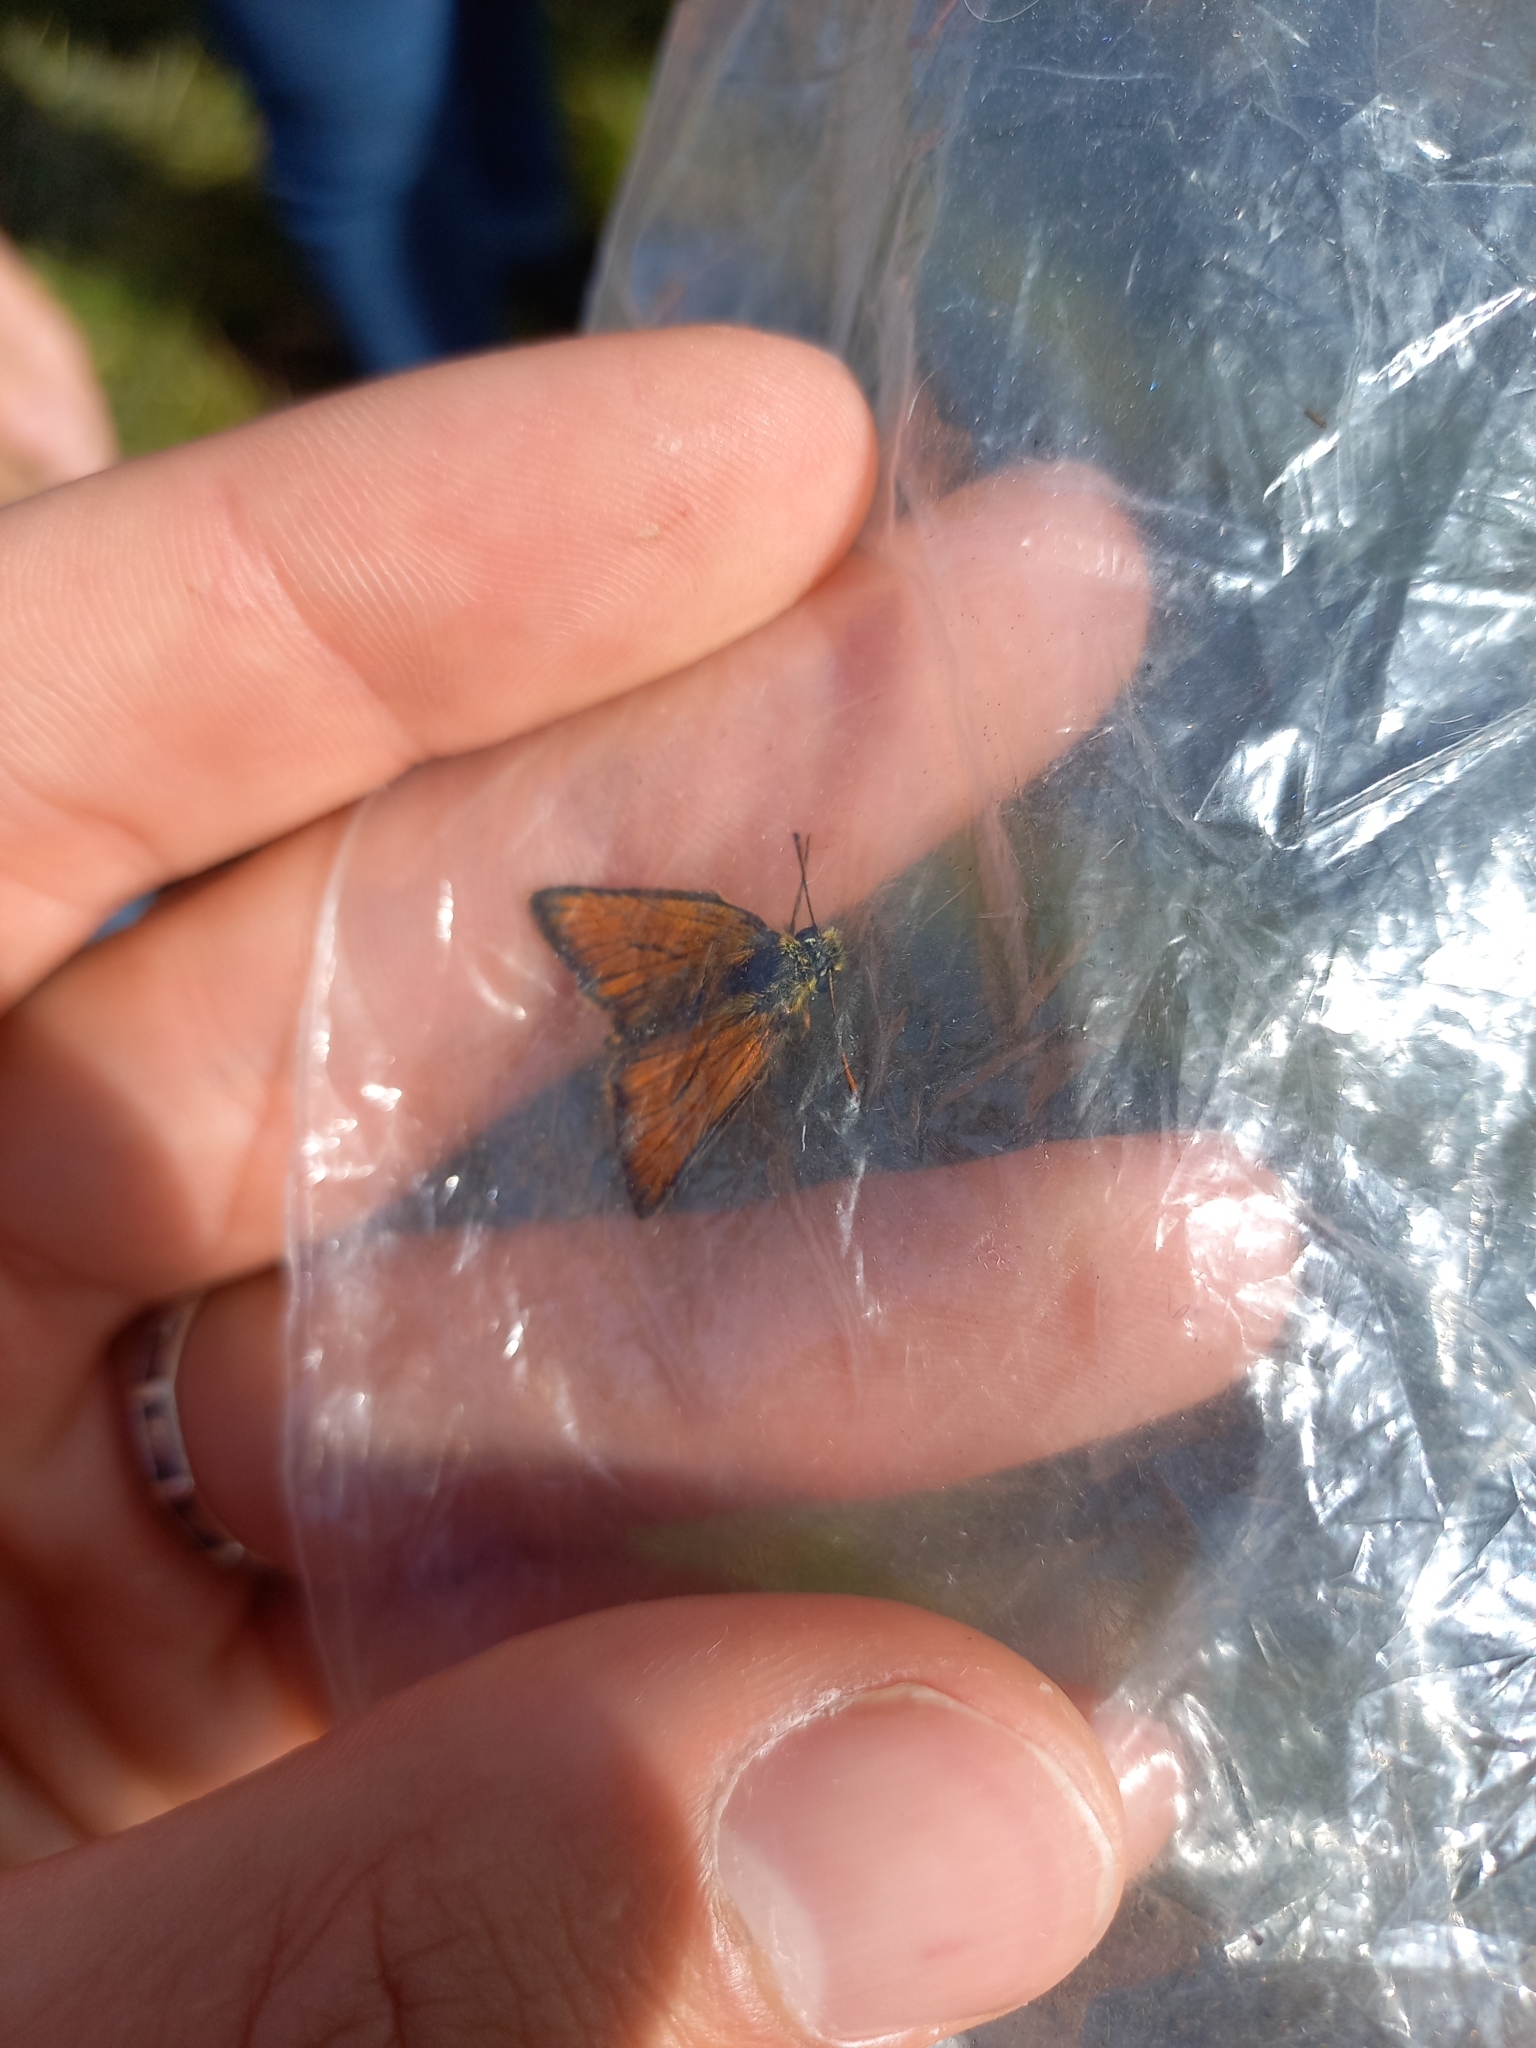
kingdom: Animalia
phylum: Arthropoda
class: Insecta
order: Lepidoptera
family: Hesperiidae
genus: Thymelicus
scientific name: Thymelicus sylvestris
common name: Small skipper
